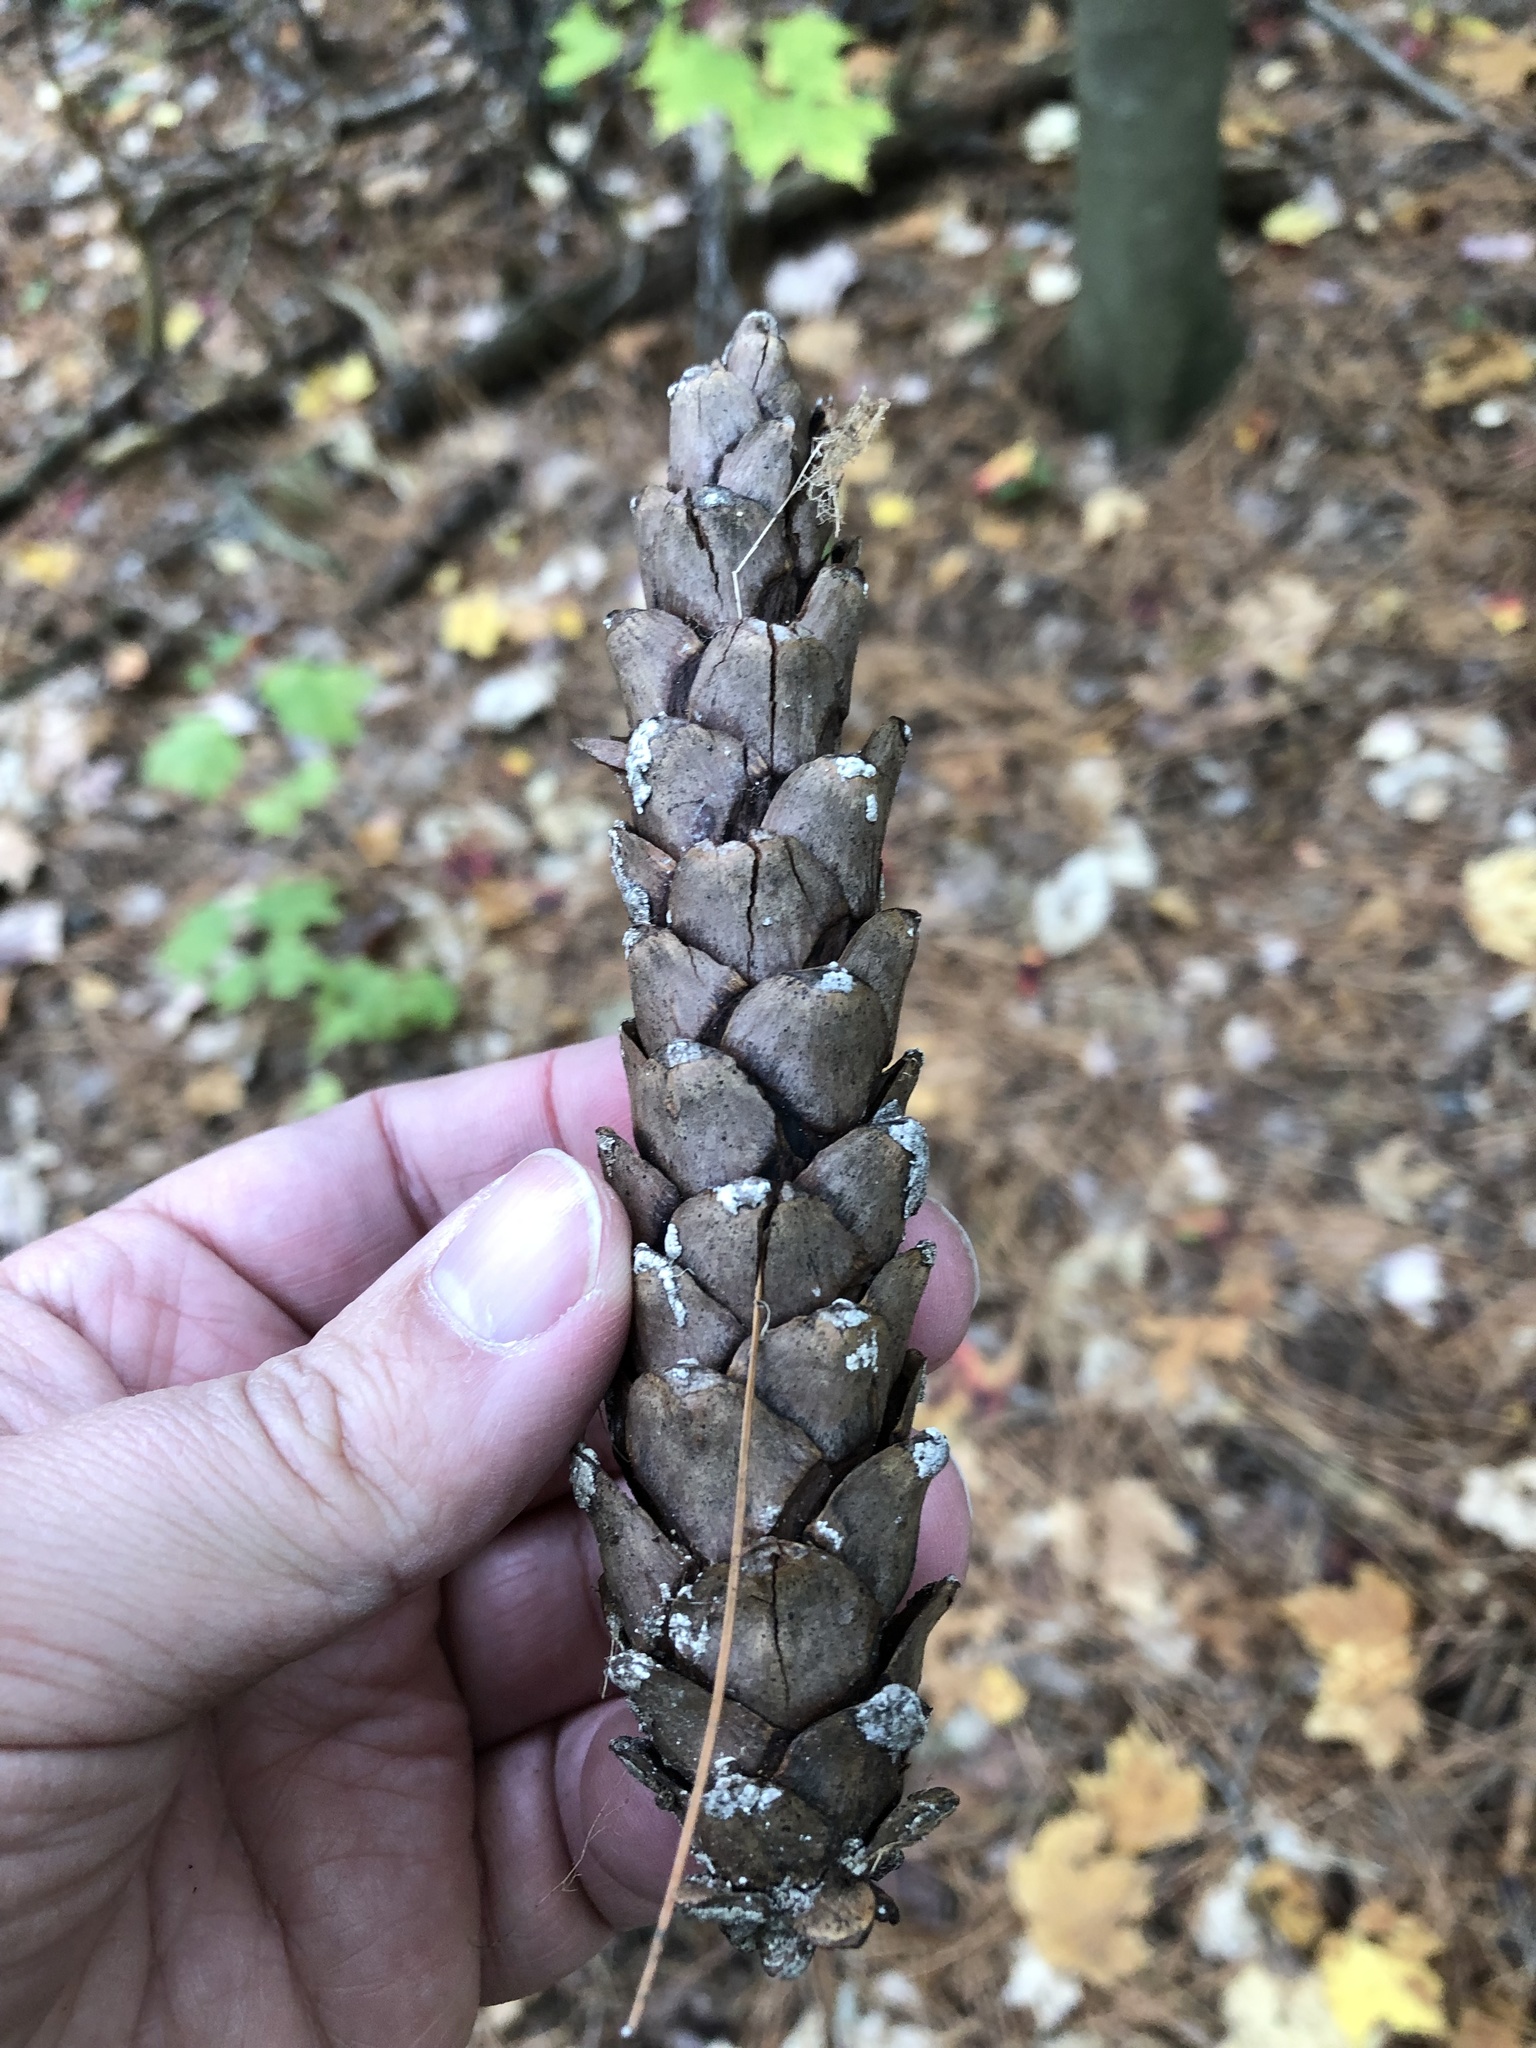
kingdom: Plantae
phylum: Tracheophyta
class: Pinopsida
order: Pinales
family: Pinaceae
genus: Pinus
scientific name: Pinus strobus
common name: Weymouth pine
